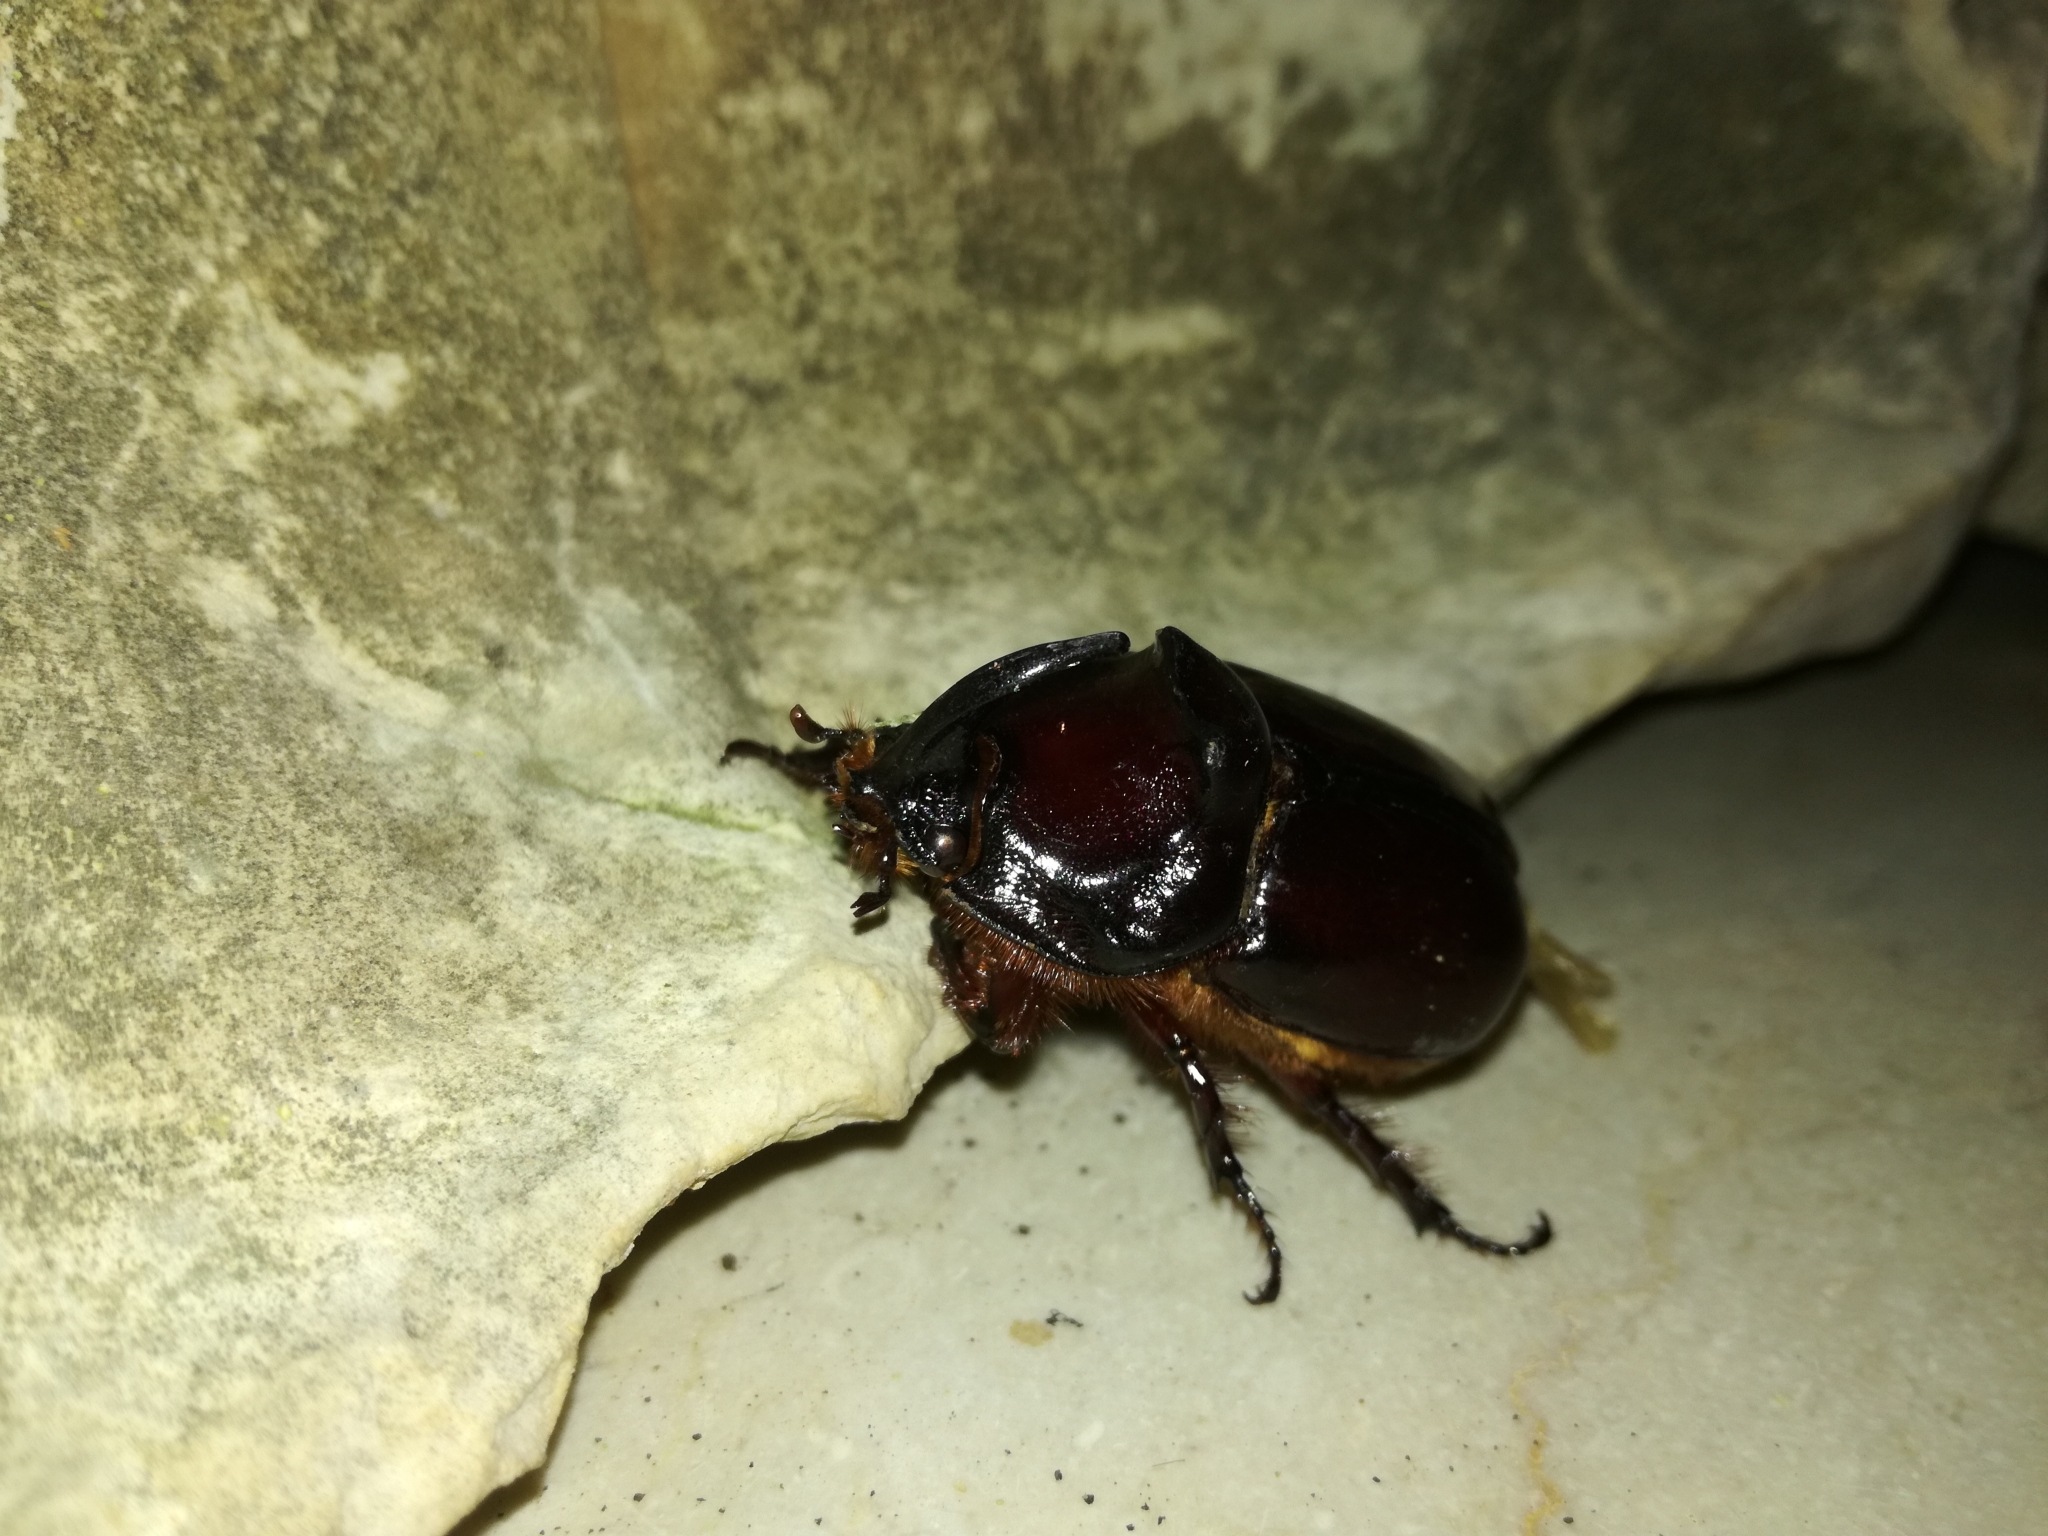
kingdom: Animalia
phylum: Arthropoda
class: Insecta
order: Coleoptera
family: Scarabaeidae
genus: Oryctes
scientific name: Oryctes nasicornis
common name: European rhinoceros beetle
